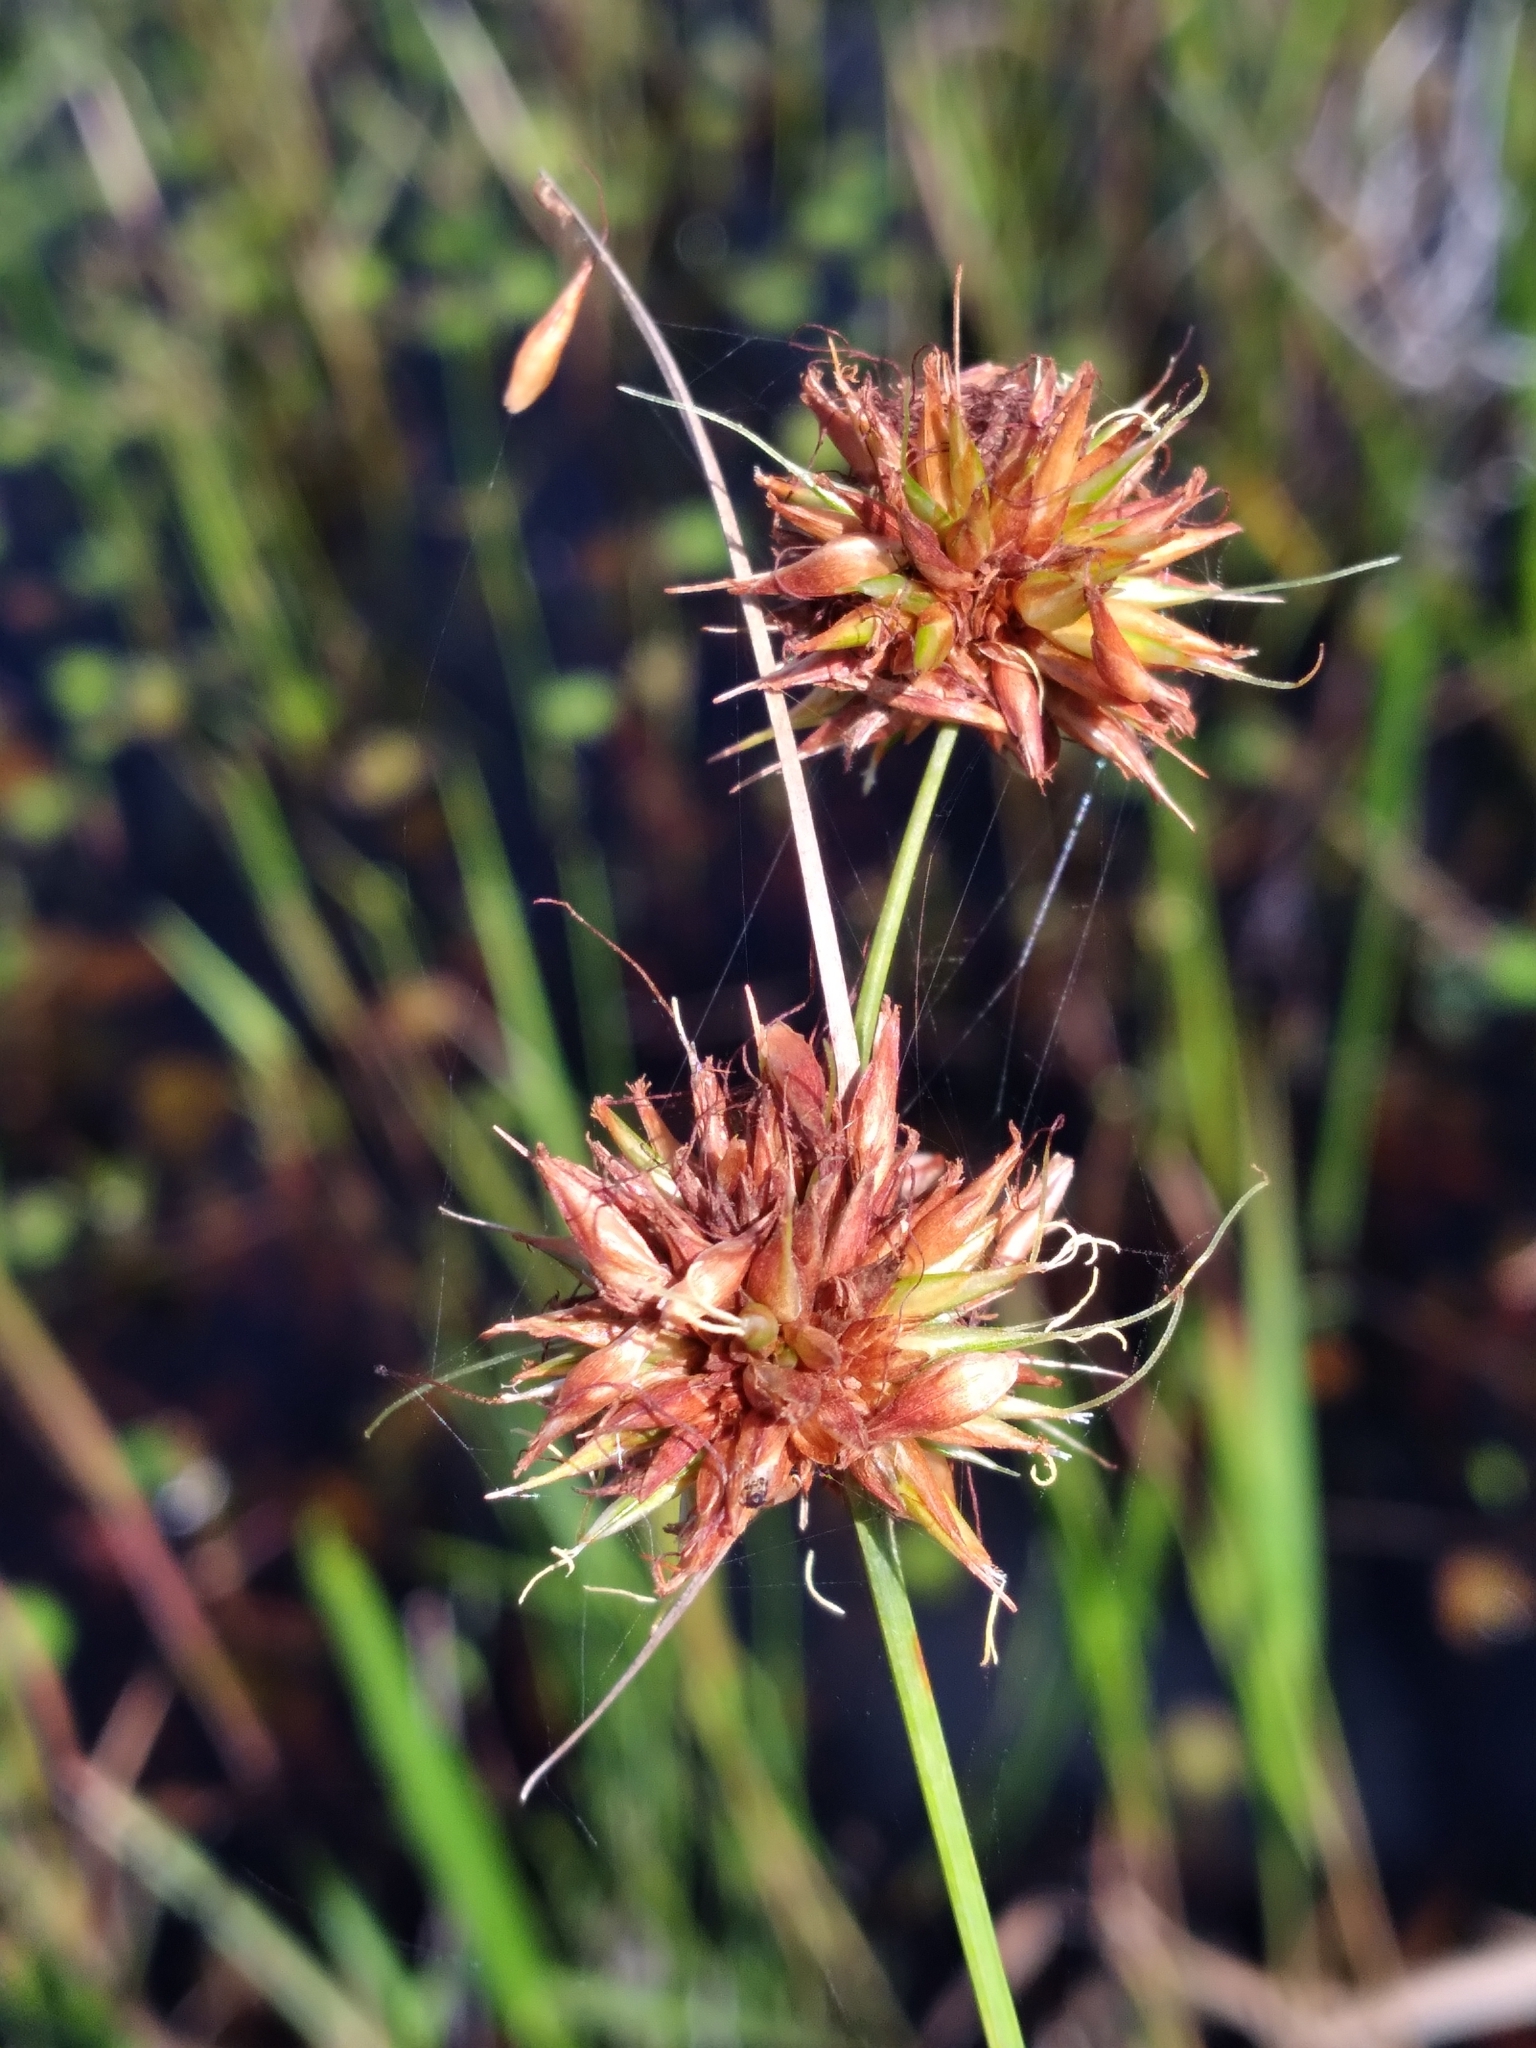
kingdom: Plantae
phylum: Tracheophyta
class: Liliopsida
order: Poales
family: Cyperaceae
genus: Rhynchospora
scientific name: Rhynchospora tracyi
